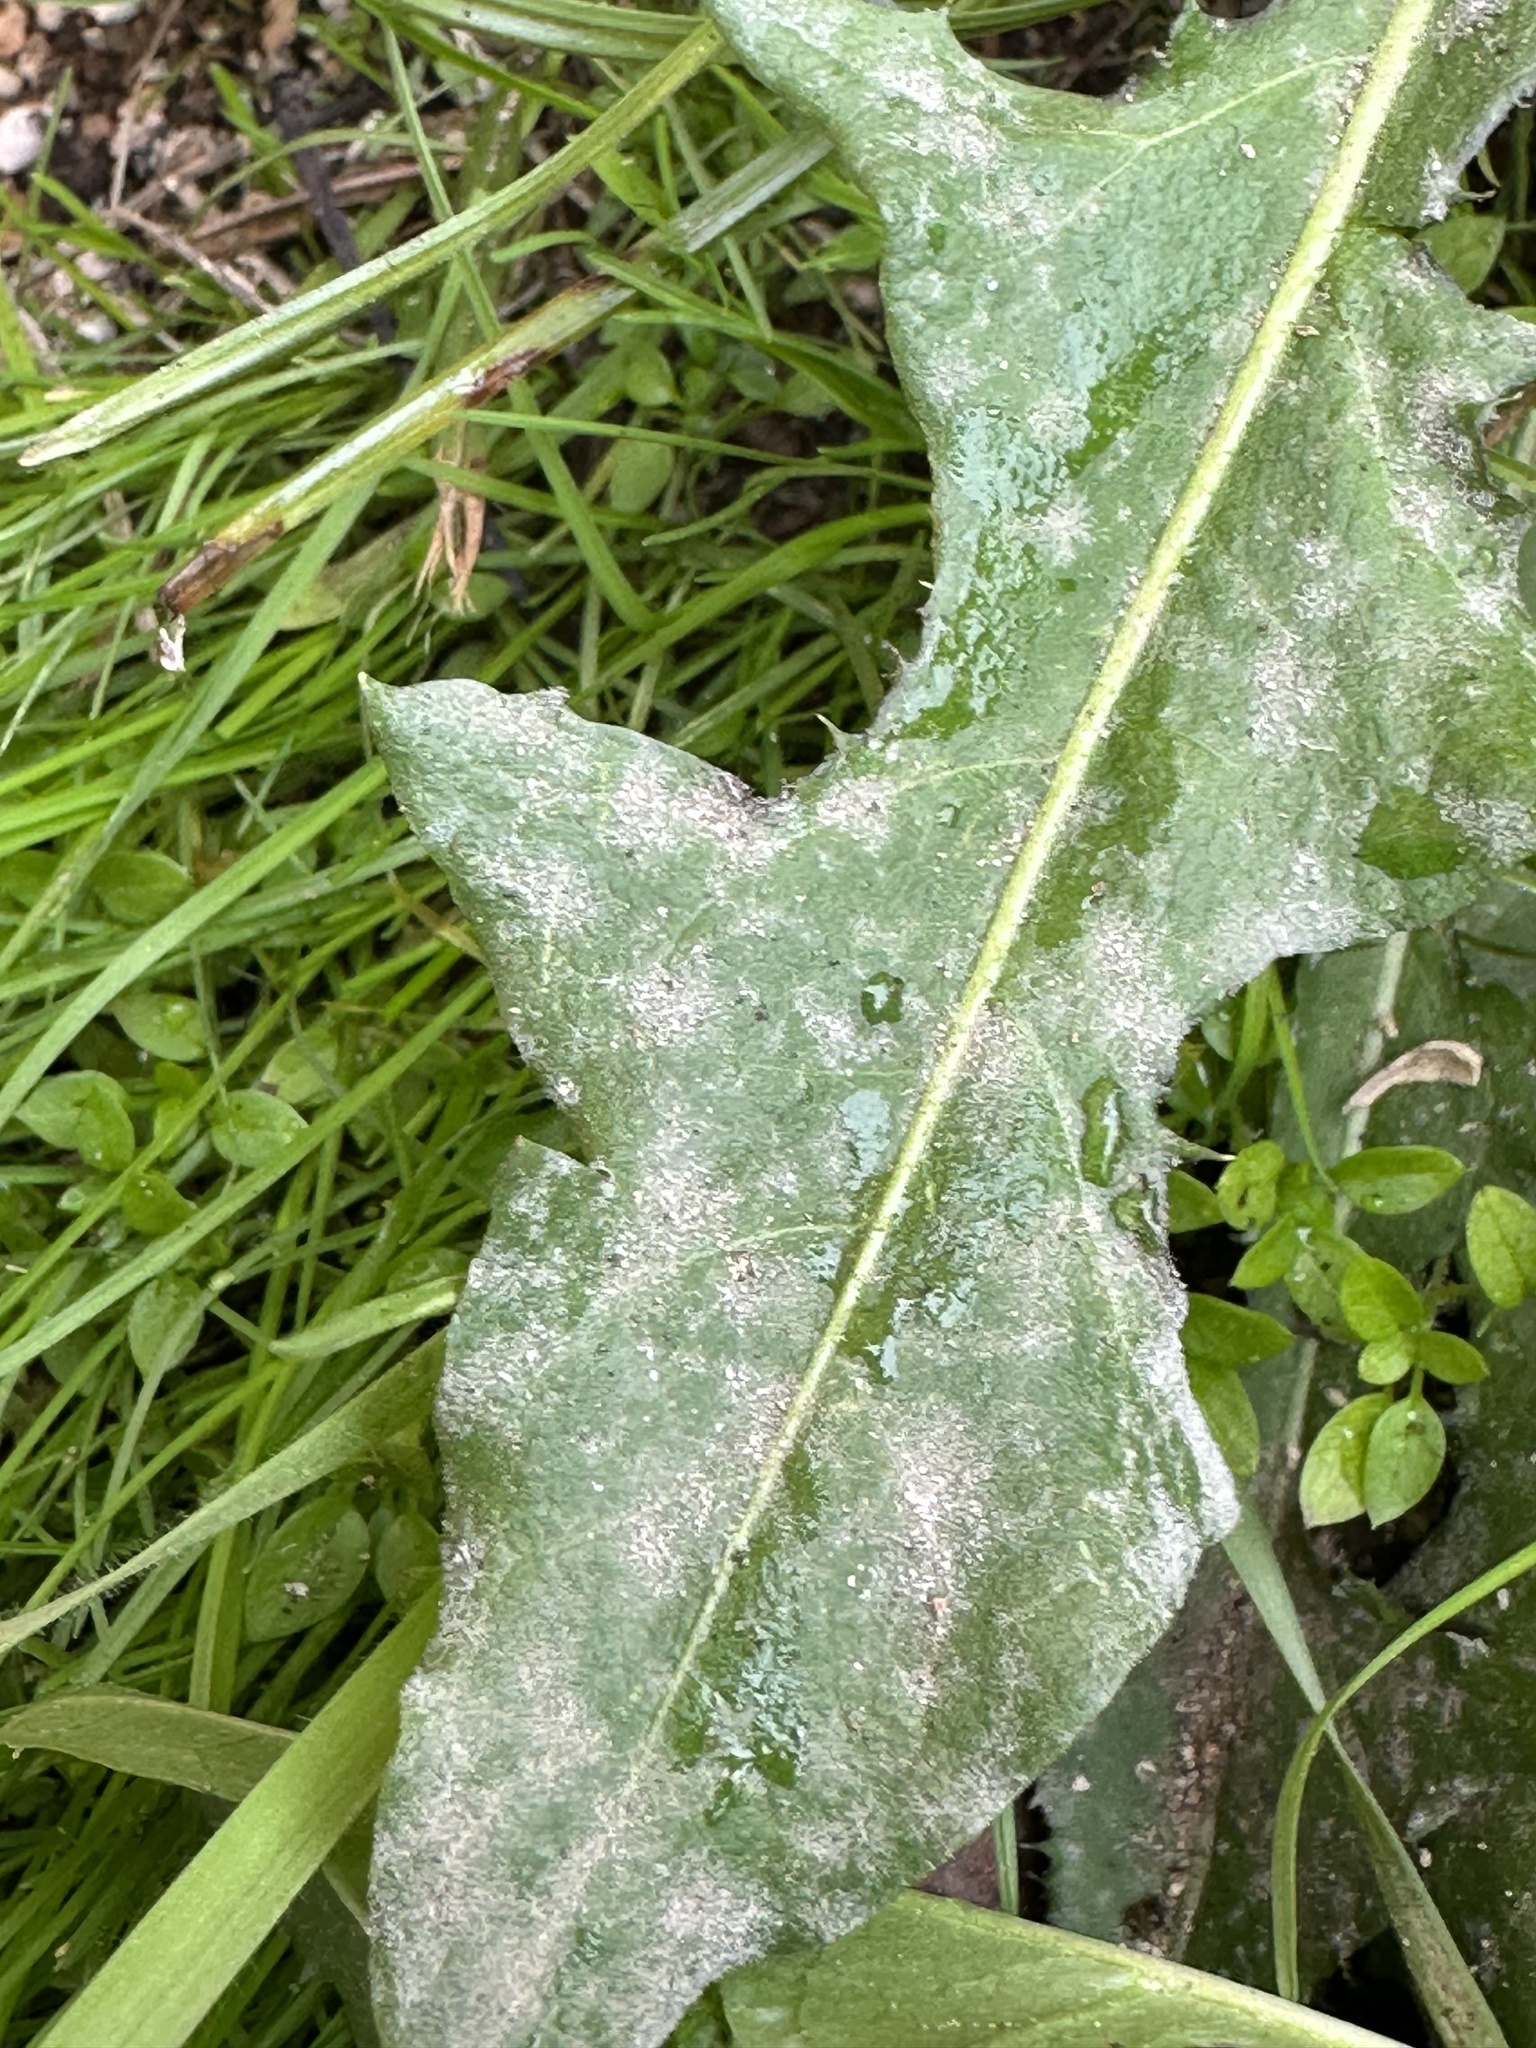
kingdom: Fungi
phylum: Ascomycota
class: Leotiomycetes
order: Helotiales
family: Erysiphaceae
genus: Podosphaera
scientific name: Podosphaera erigerontis-canadensis
